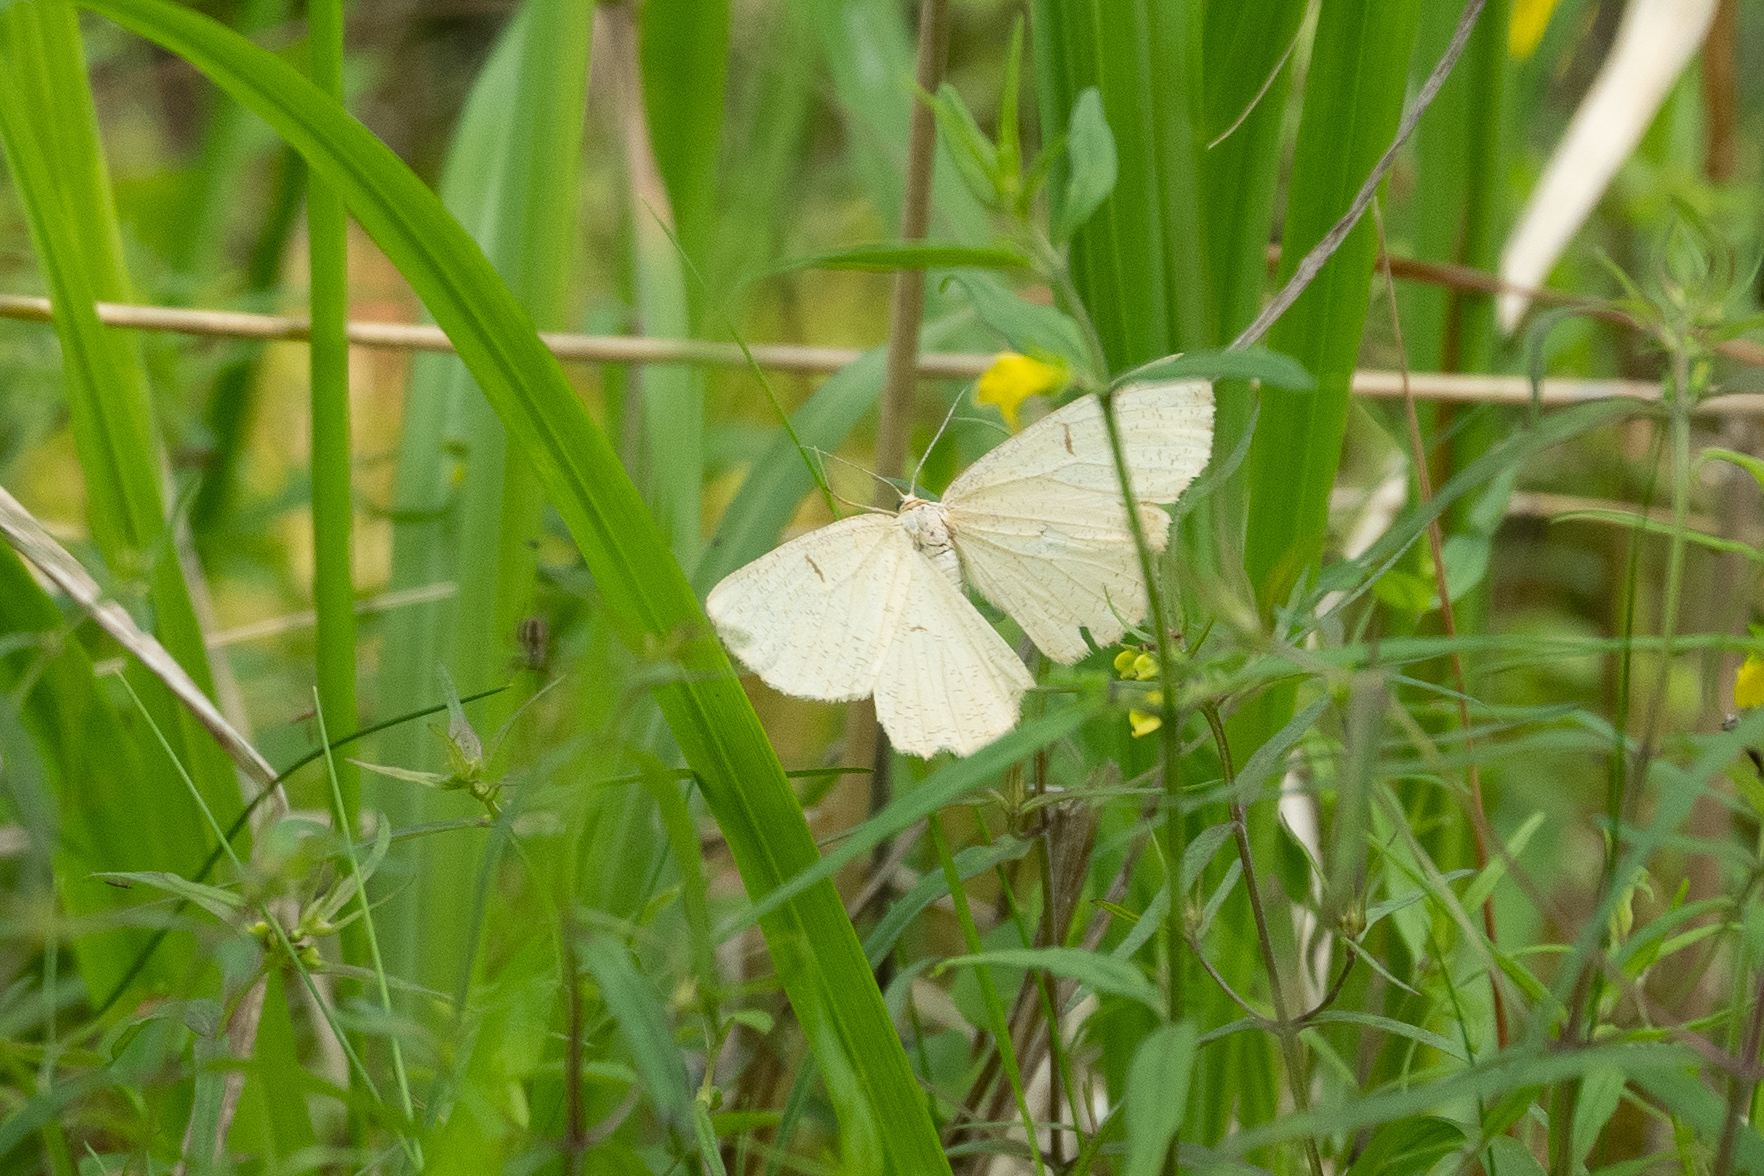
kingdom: Animalia
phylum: Arthropoda
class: Insecta
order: Lepidoptera
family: Geometridae
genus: Angerona
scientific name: Angerona prunaria
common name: Orange moth
